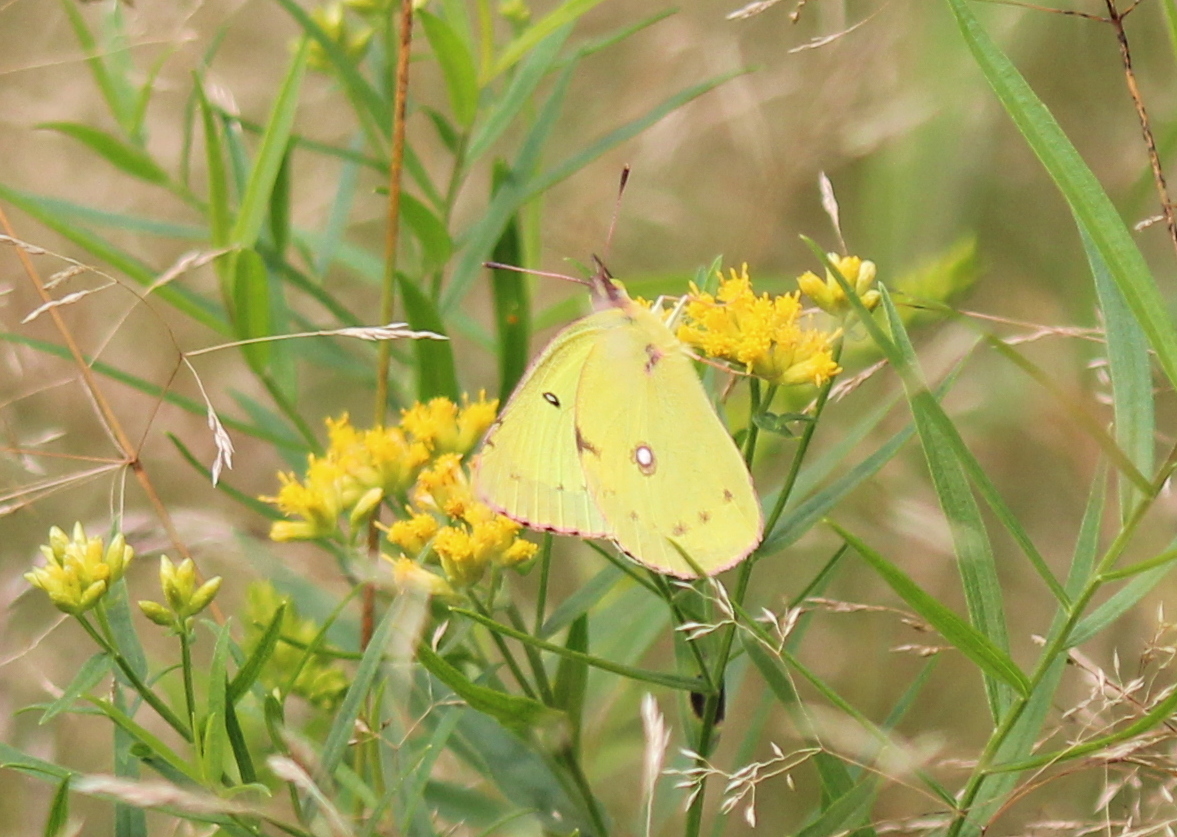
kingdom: Animalia
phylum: Arthropoda
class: Insecta
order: Lepidoptera
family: Pieridae
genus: Colias
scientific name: Colias philodice
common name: Clouded sulphur
